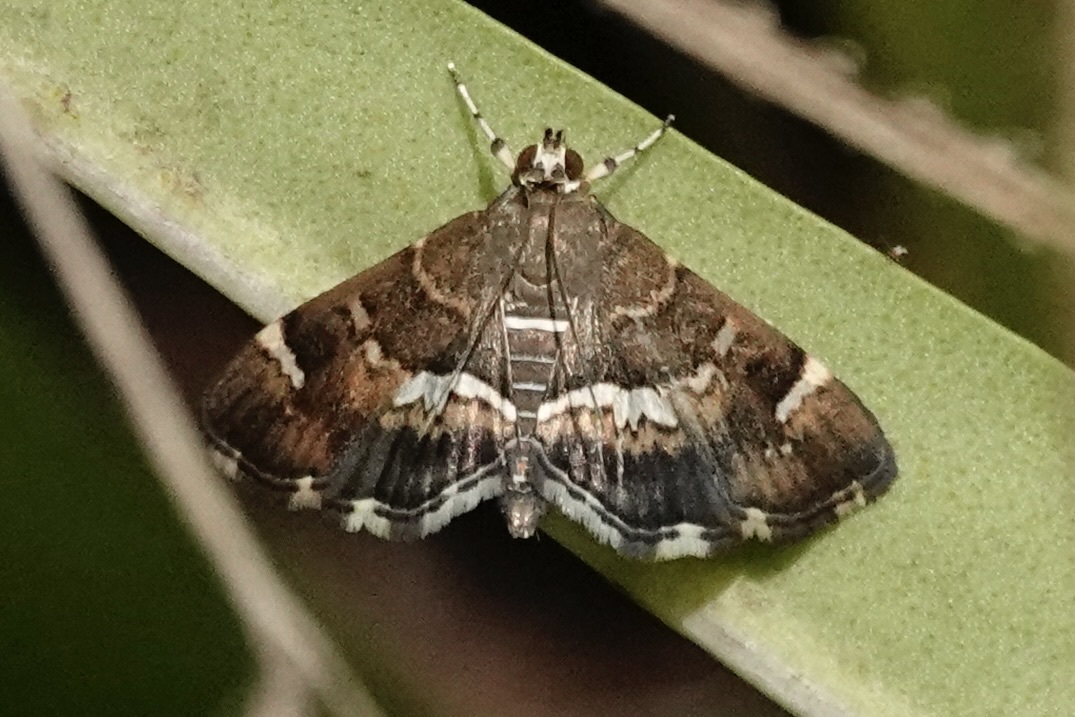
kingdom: Animalia
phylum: Arthropoda
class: Insecta
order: Lepidoptera
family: Crambidae
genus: Hymenia
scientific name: Hymenia perspectalis
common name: Spotted beet webworm
